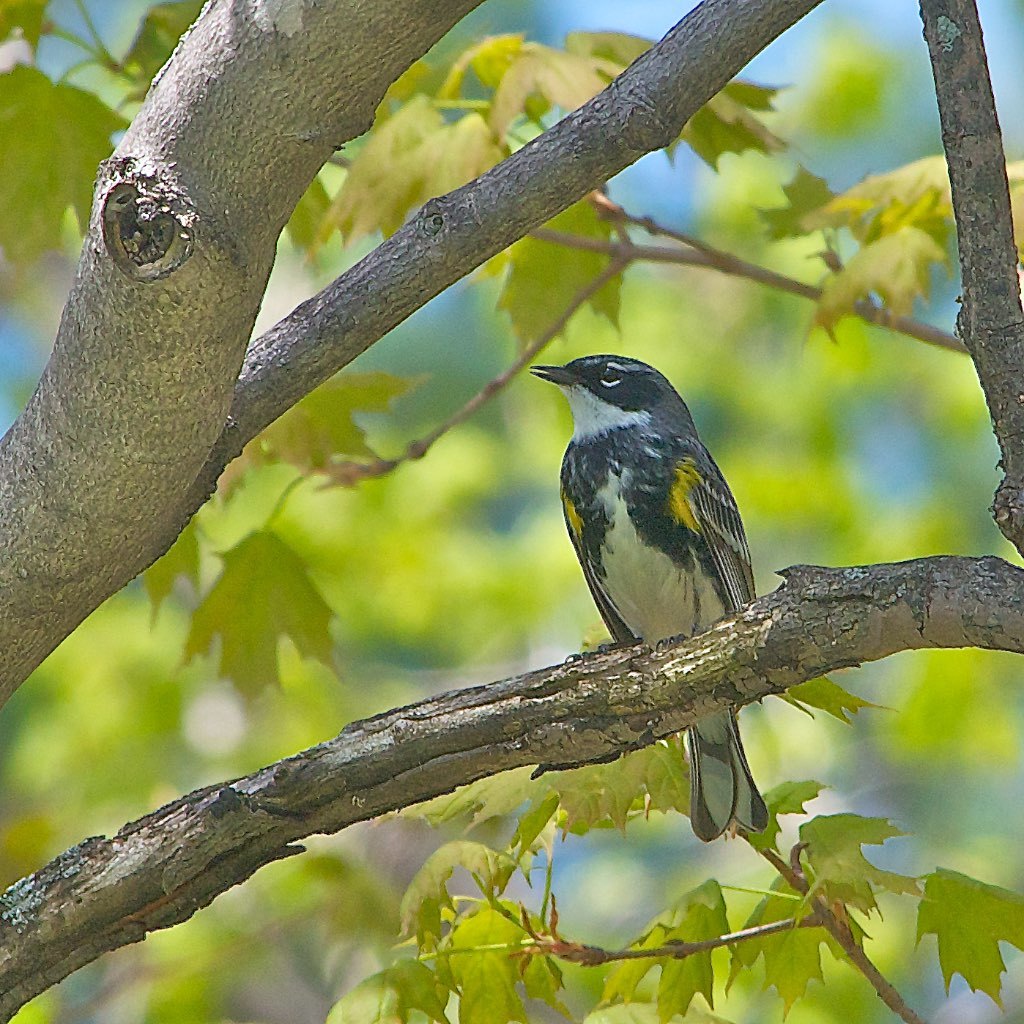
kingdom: Animalia
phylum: Chordata
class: Aves
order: Passeriformes
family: Parulidae
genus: Setophaga
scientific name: Setophaga coronata
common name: Myrtle warbler
